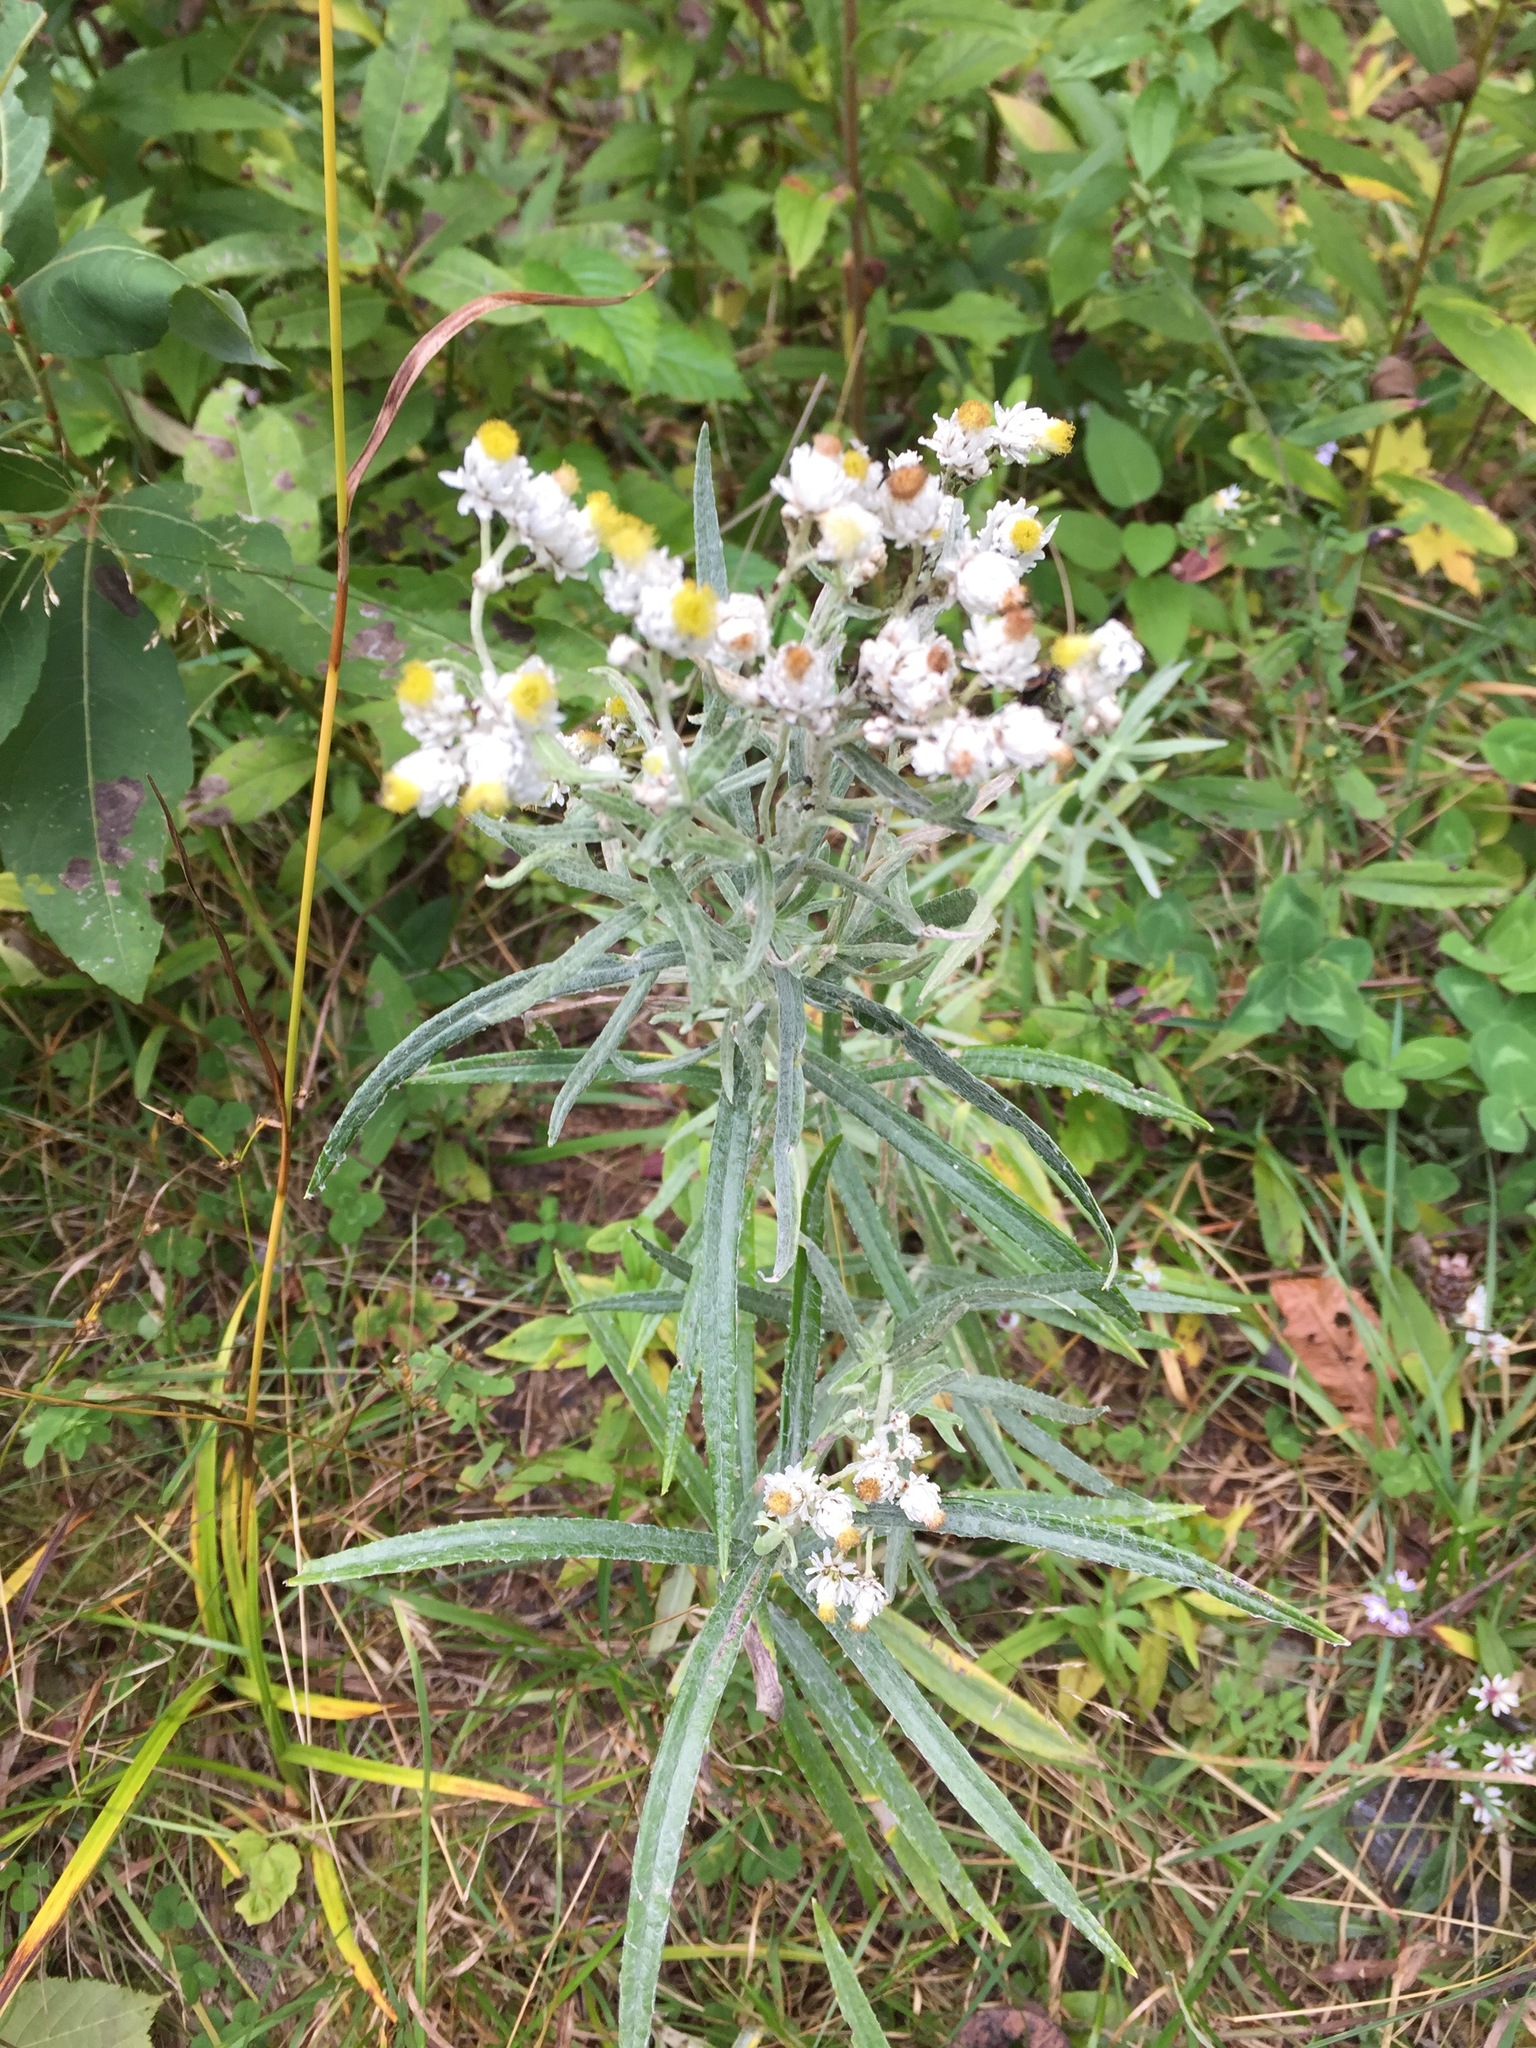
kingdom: Plantae
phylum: Tracheophyta
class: Magnoliopsida
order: Asterales
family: Asteraceae
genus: Anaphalis
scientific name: Anaphalis margaritacea
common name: Pearly everlasting
